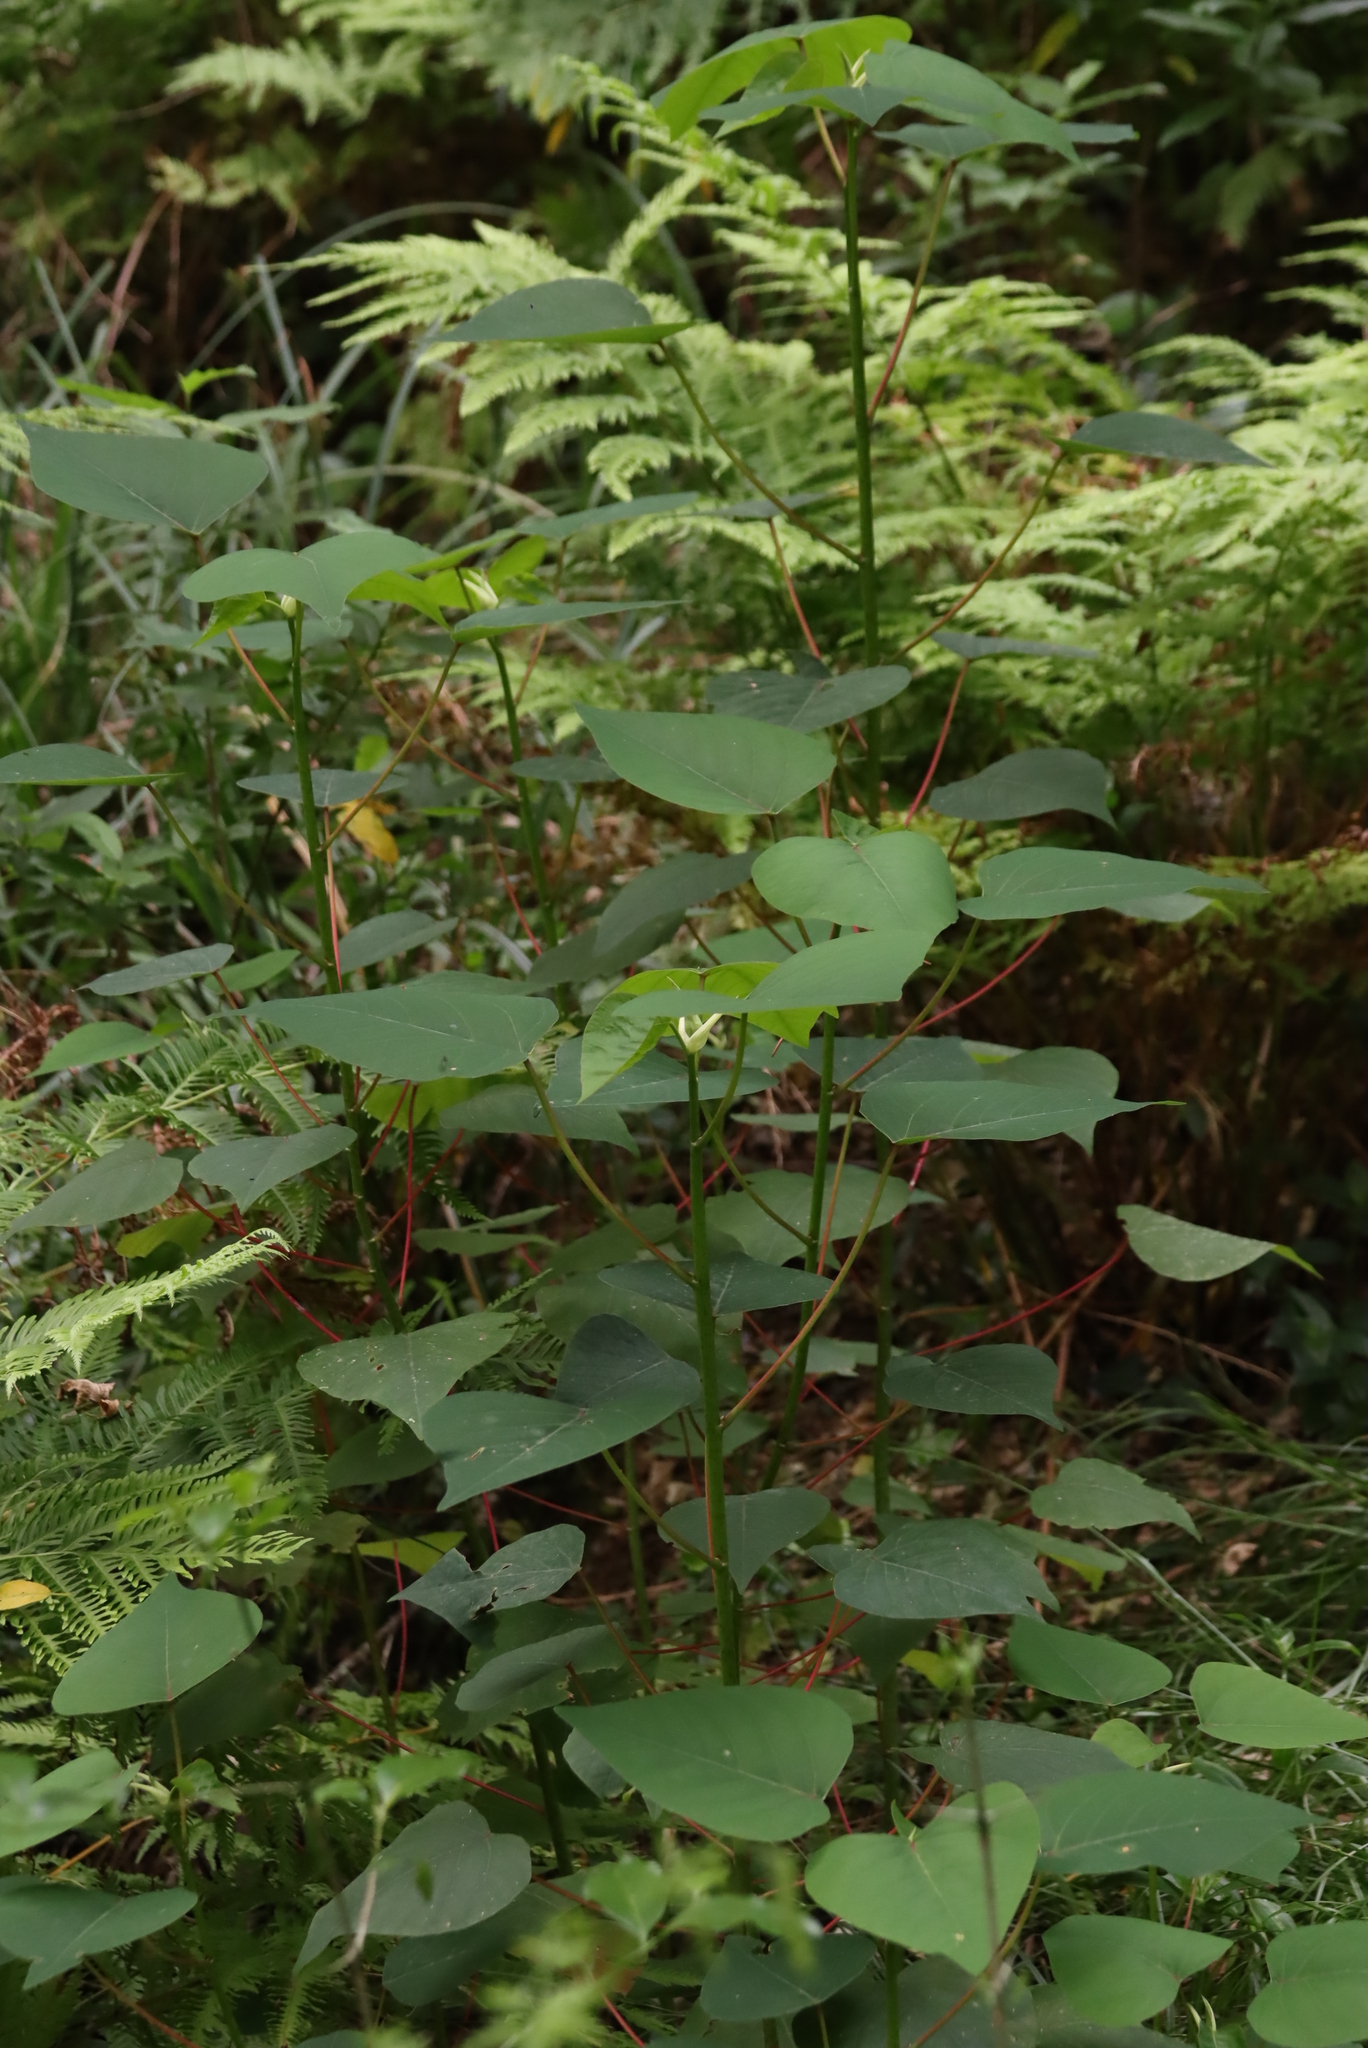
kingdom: Plantae
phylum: Tracheophyta
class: Magnoliopsida
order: Malpighiales
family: Euphorbiaceae
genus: Homalanthus
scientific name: Homalanthus populifolius
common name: Queensland poplar
